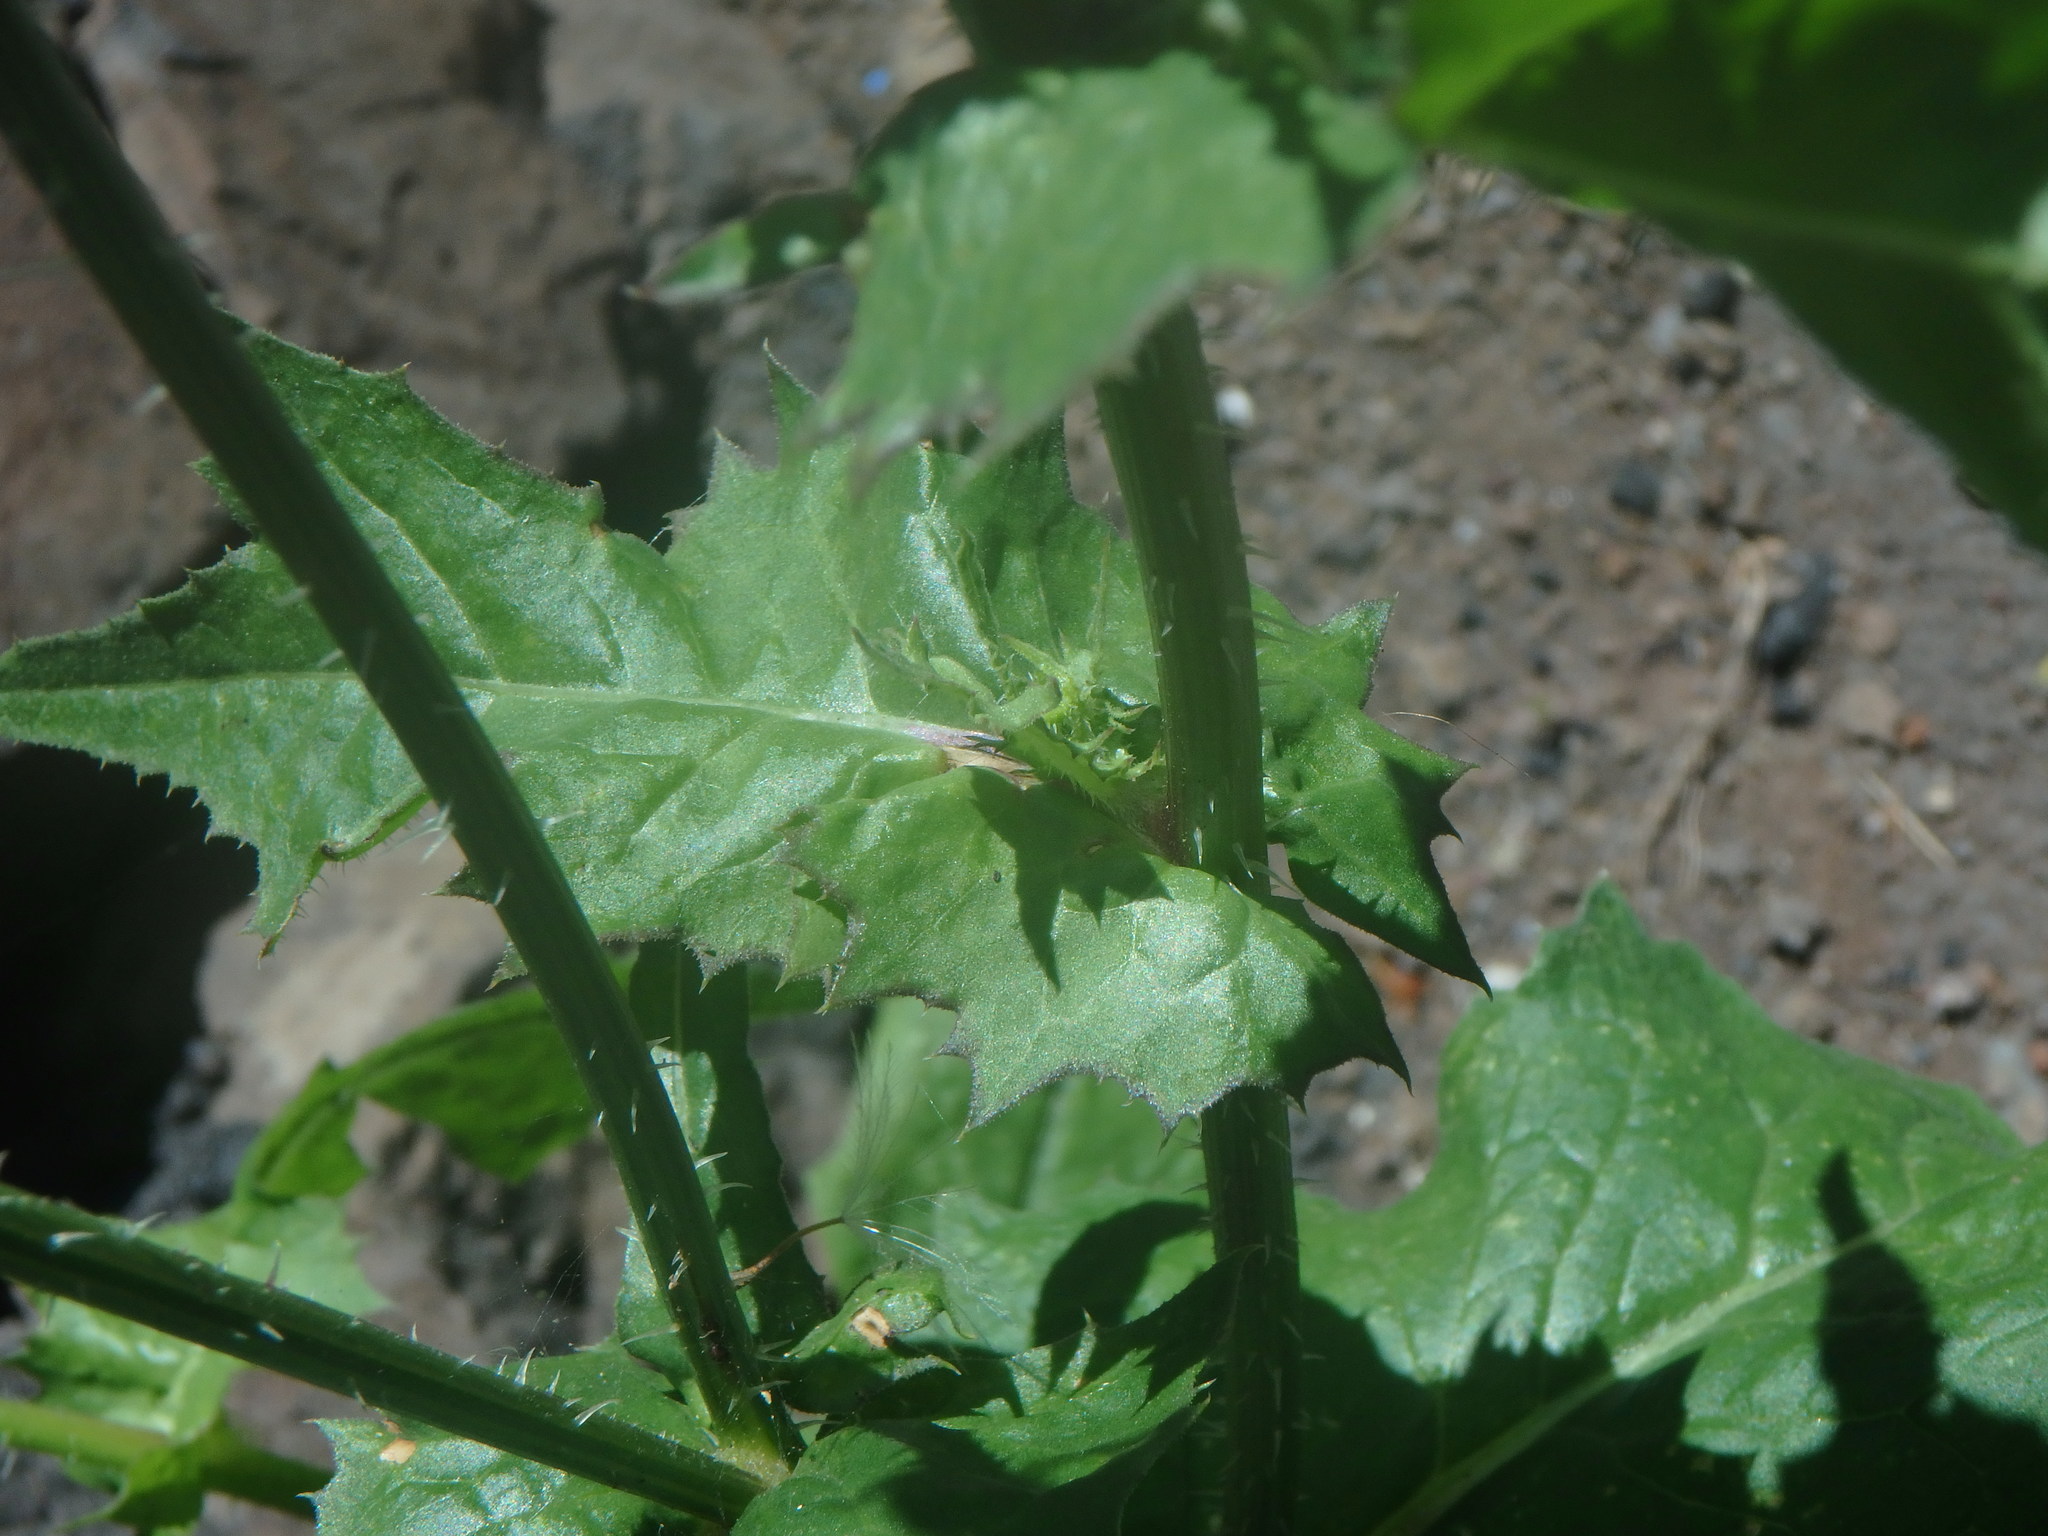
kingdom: Plantae
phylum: Tracheophyta
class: Magnoliopsida
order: Asterales
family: Asteraceae
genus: Urospermum
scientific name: Urospermum picroides
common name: False hawkbit
